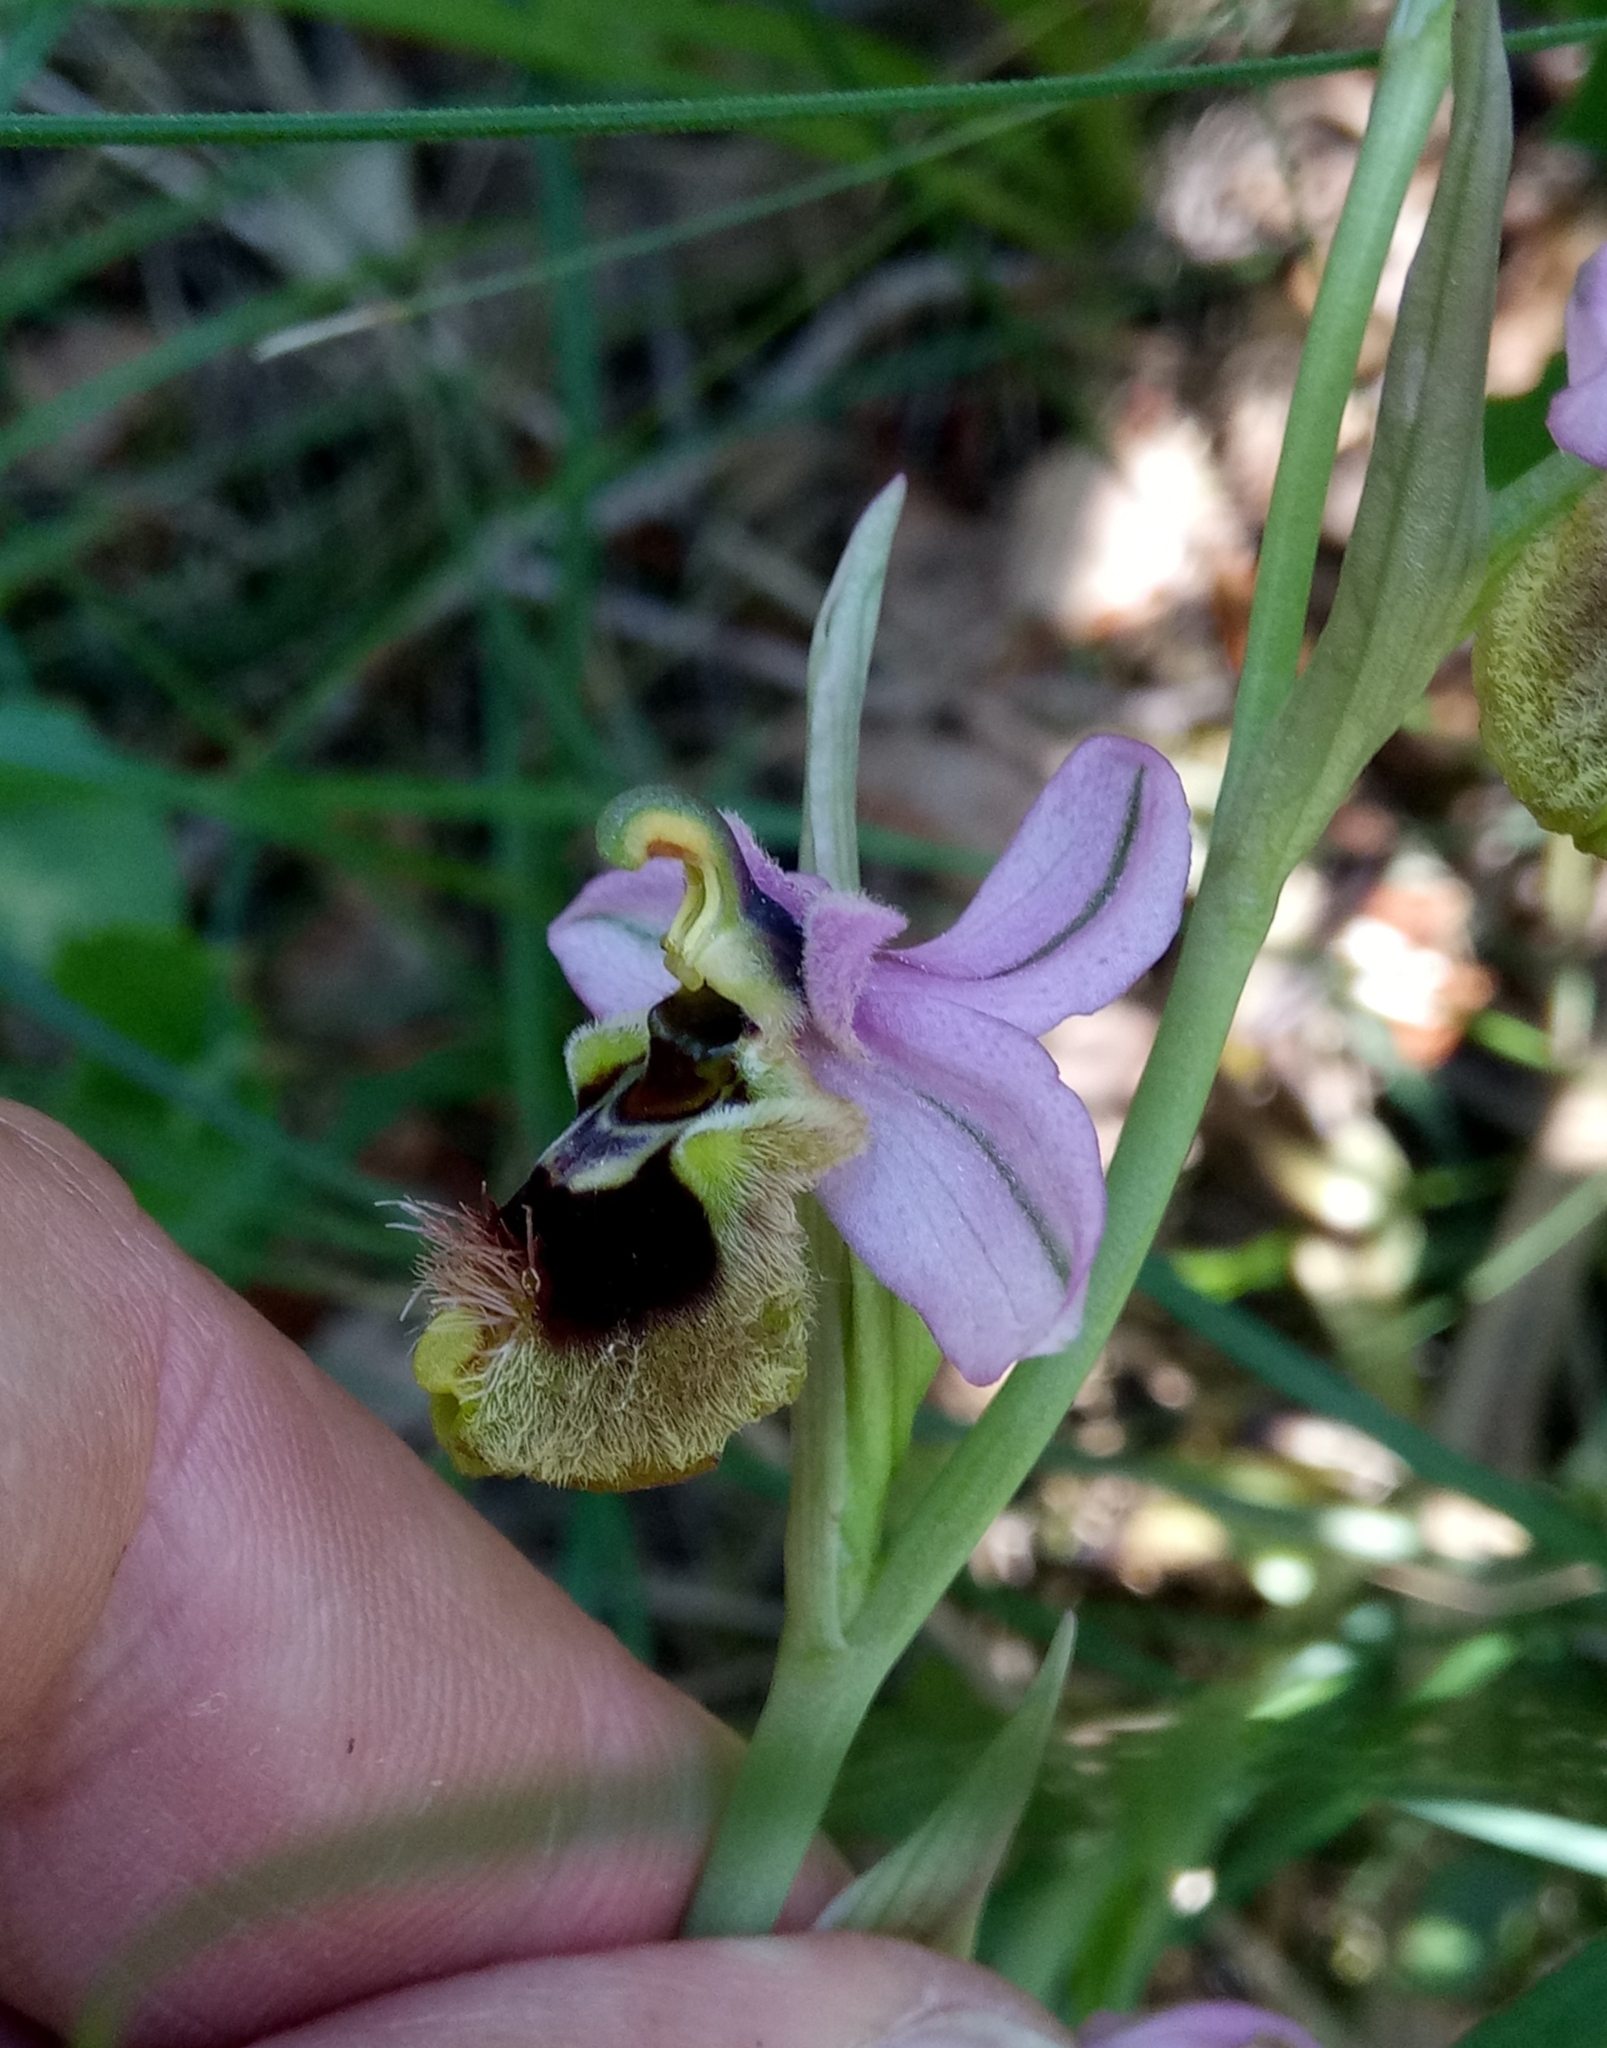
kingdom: Plantae
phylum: Tracheophyta
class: Liliopsida
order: Asparagales
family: Orchidaceae
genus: Ophrys
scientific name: Ophrys tenthredinifera
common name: Sawfly orchid
